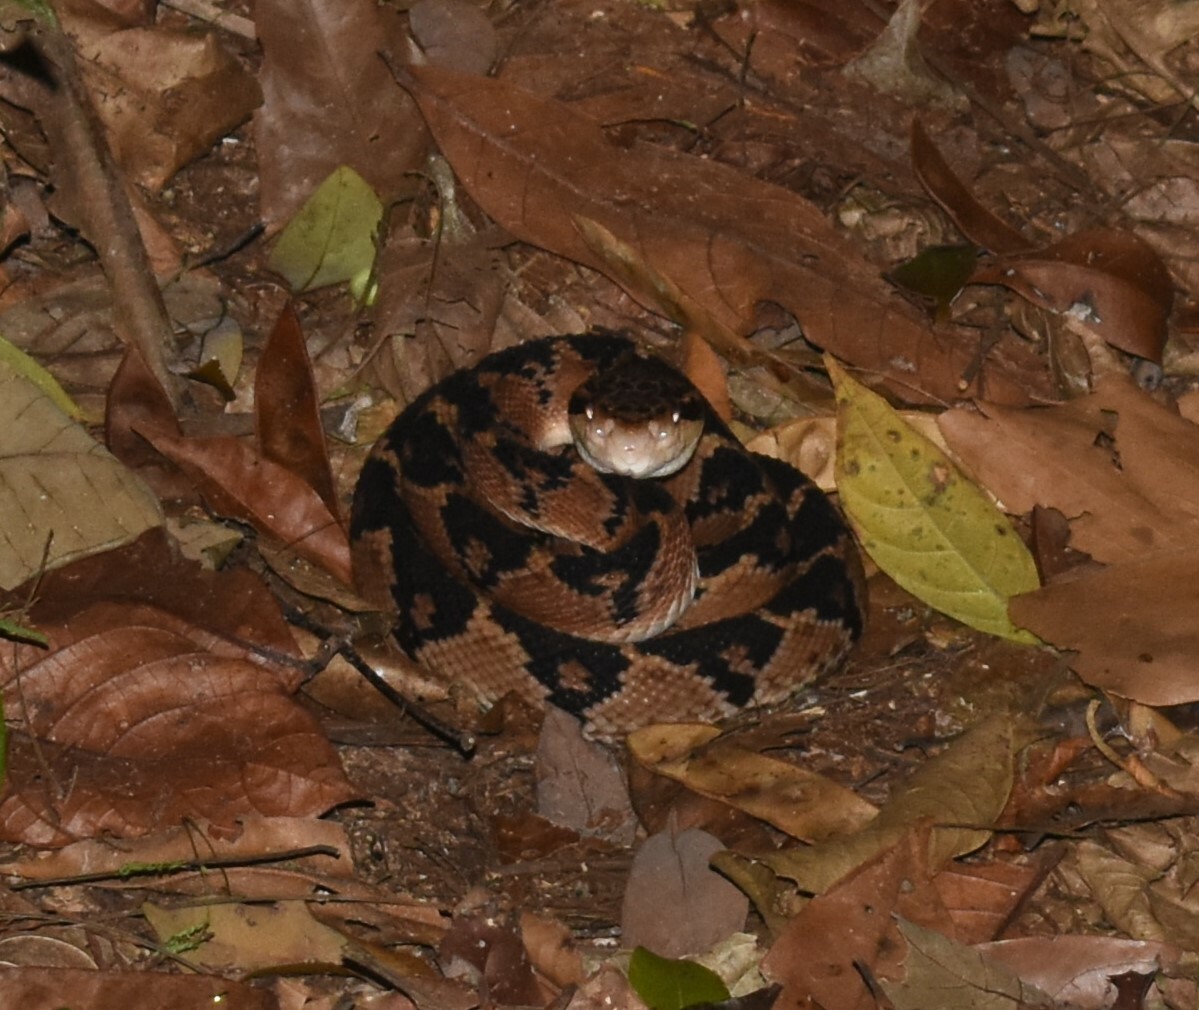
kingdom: Animalia
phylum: Chordata
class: Squamata
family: Viperidae
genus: Lachesis
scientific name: Lachesis muta
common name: South american bushmaster
